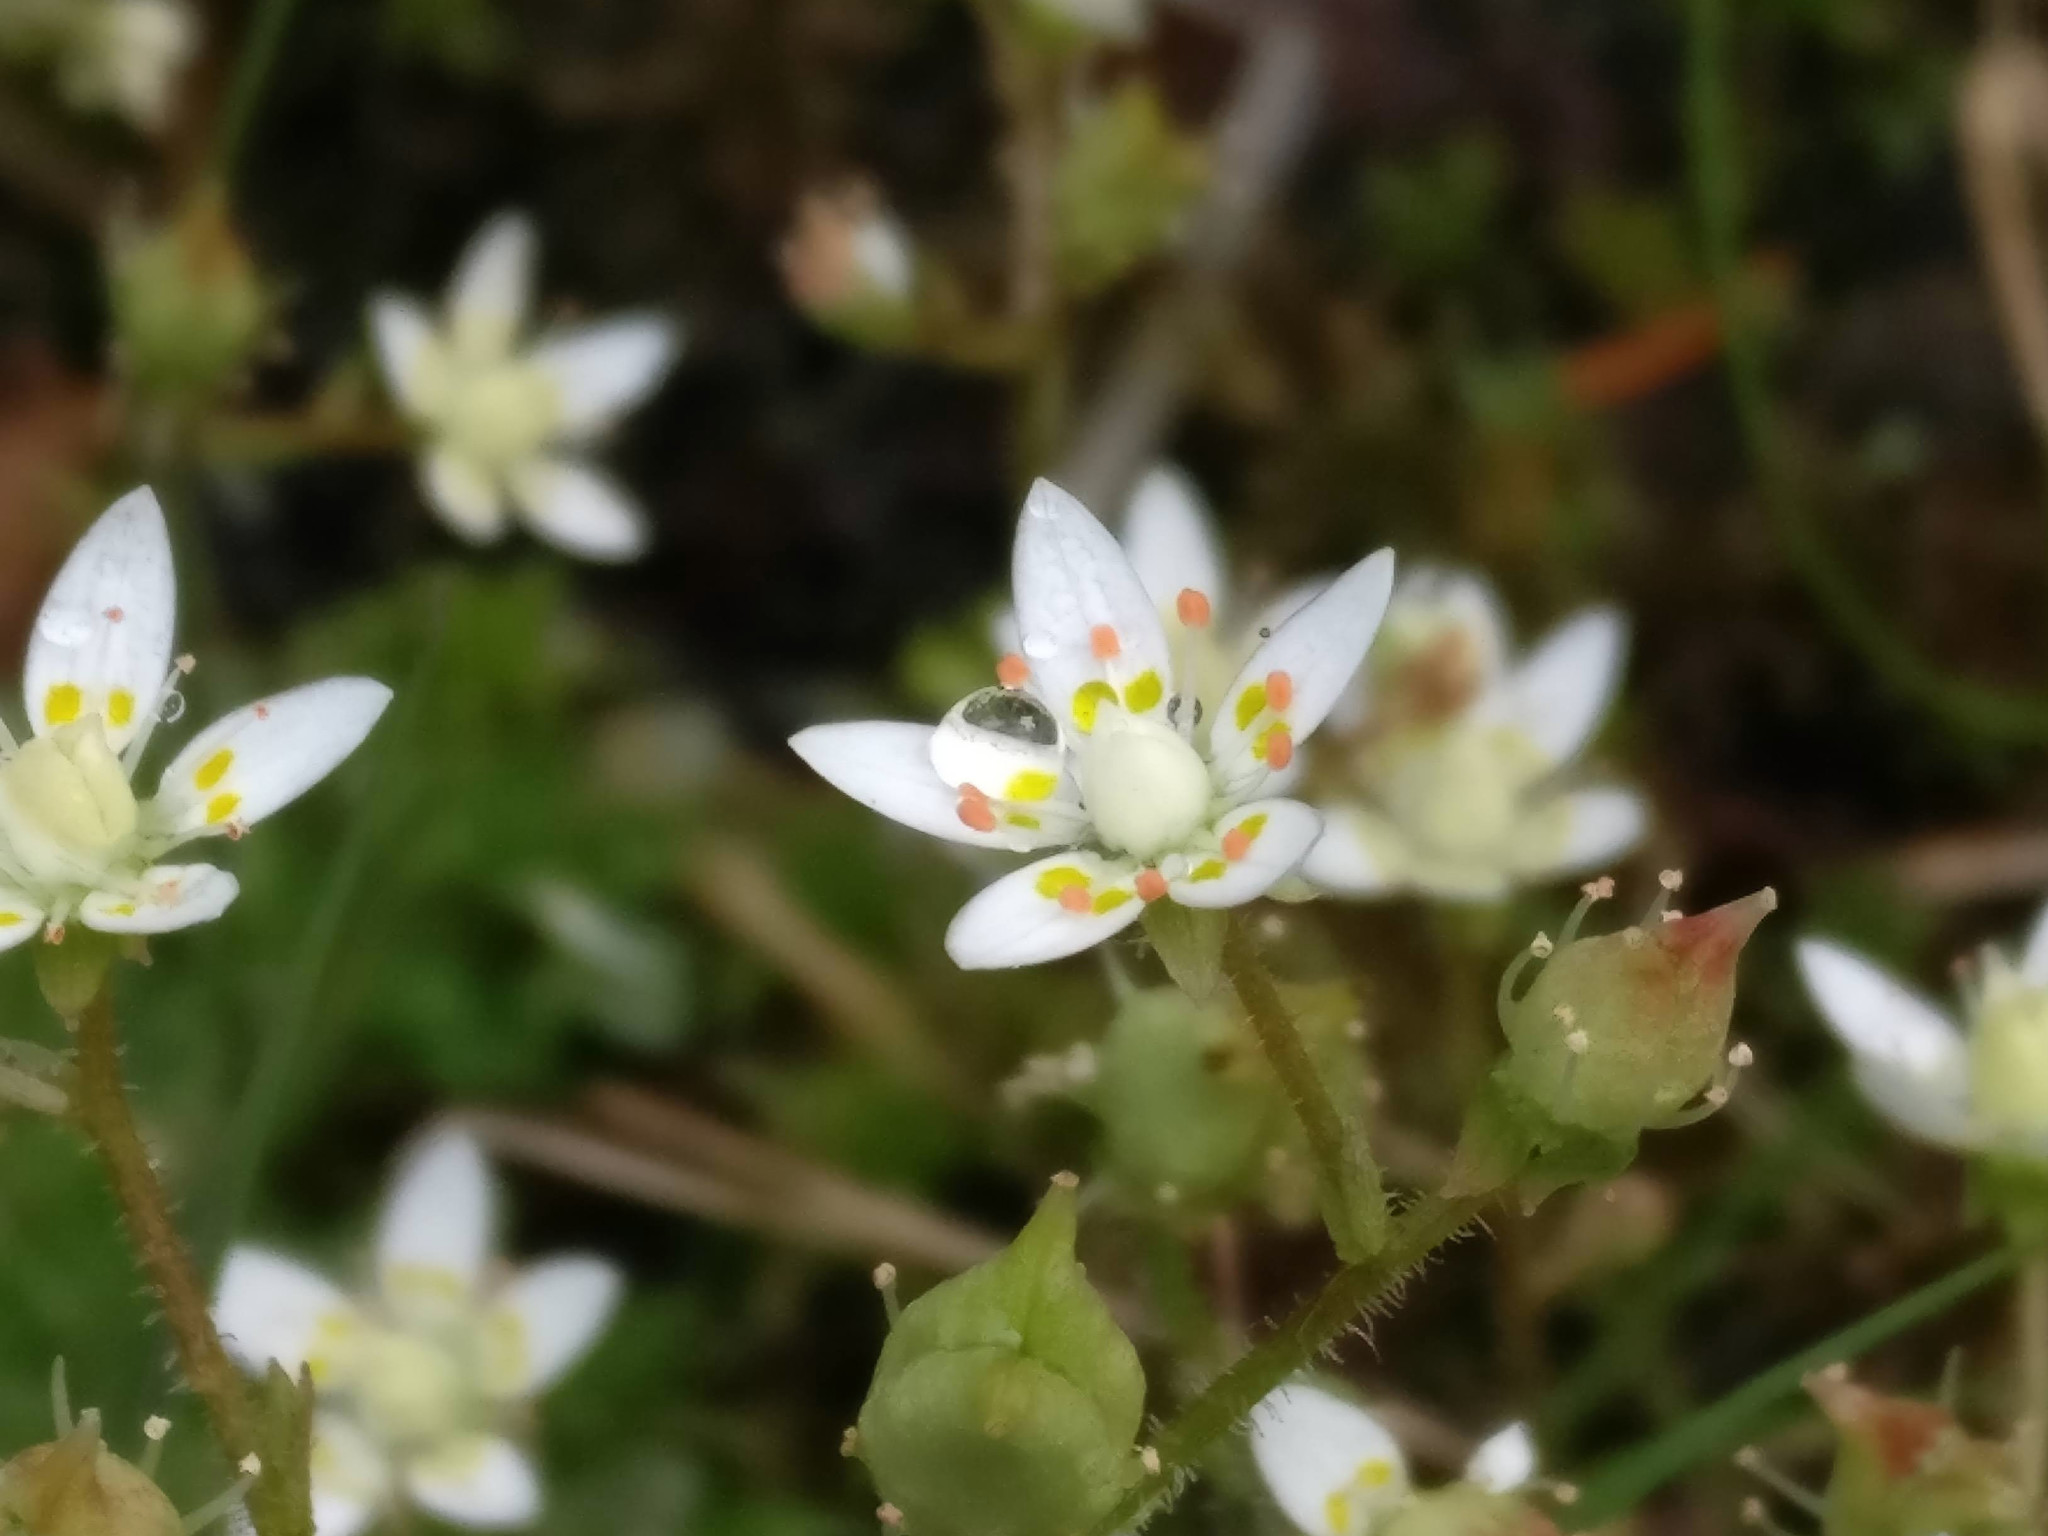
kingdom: Plantae
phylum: Tracheophyta
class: Magnoliopsida
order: Saxifragales
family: Saxifragaceae
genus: Micranthes
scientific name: Micranthes stellaris
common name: Starry saxifrage
